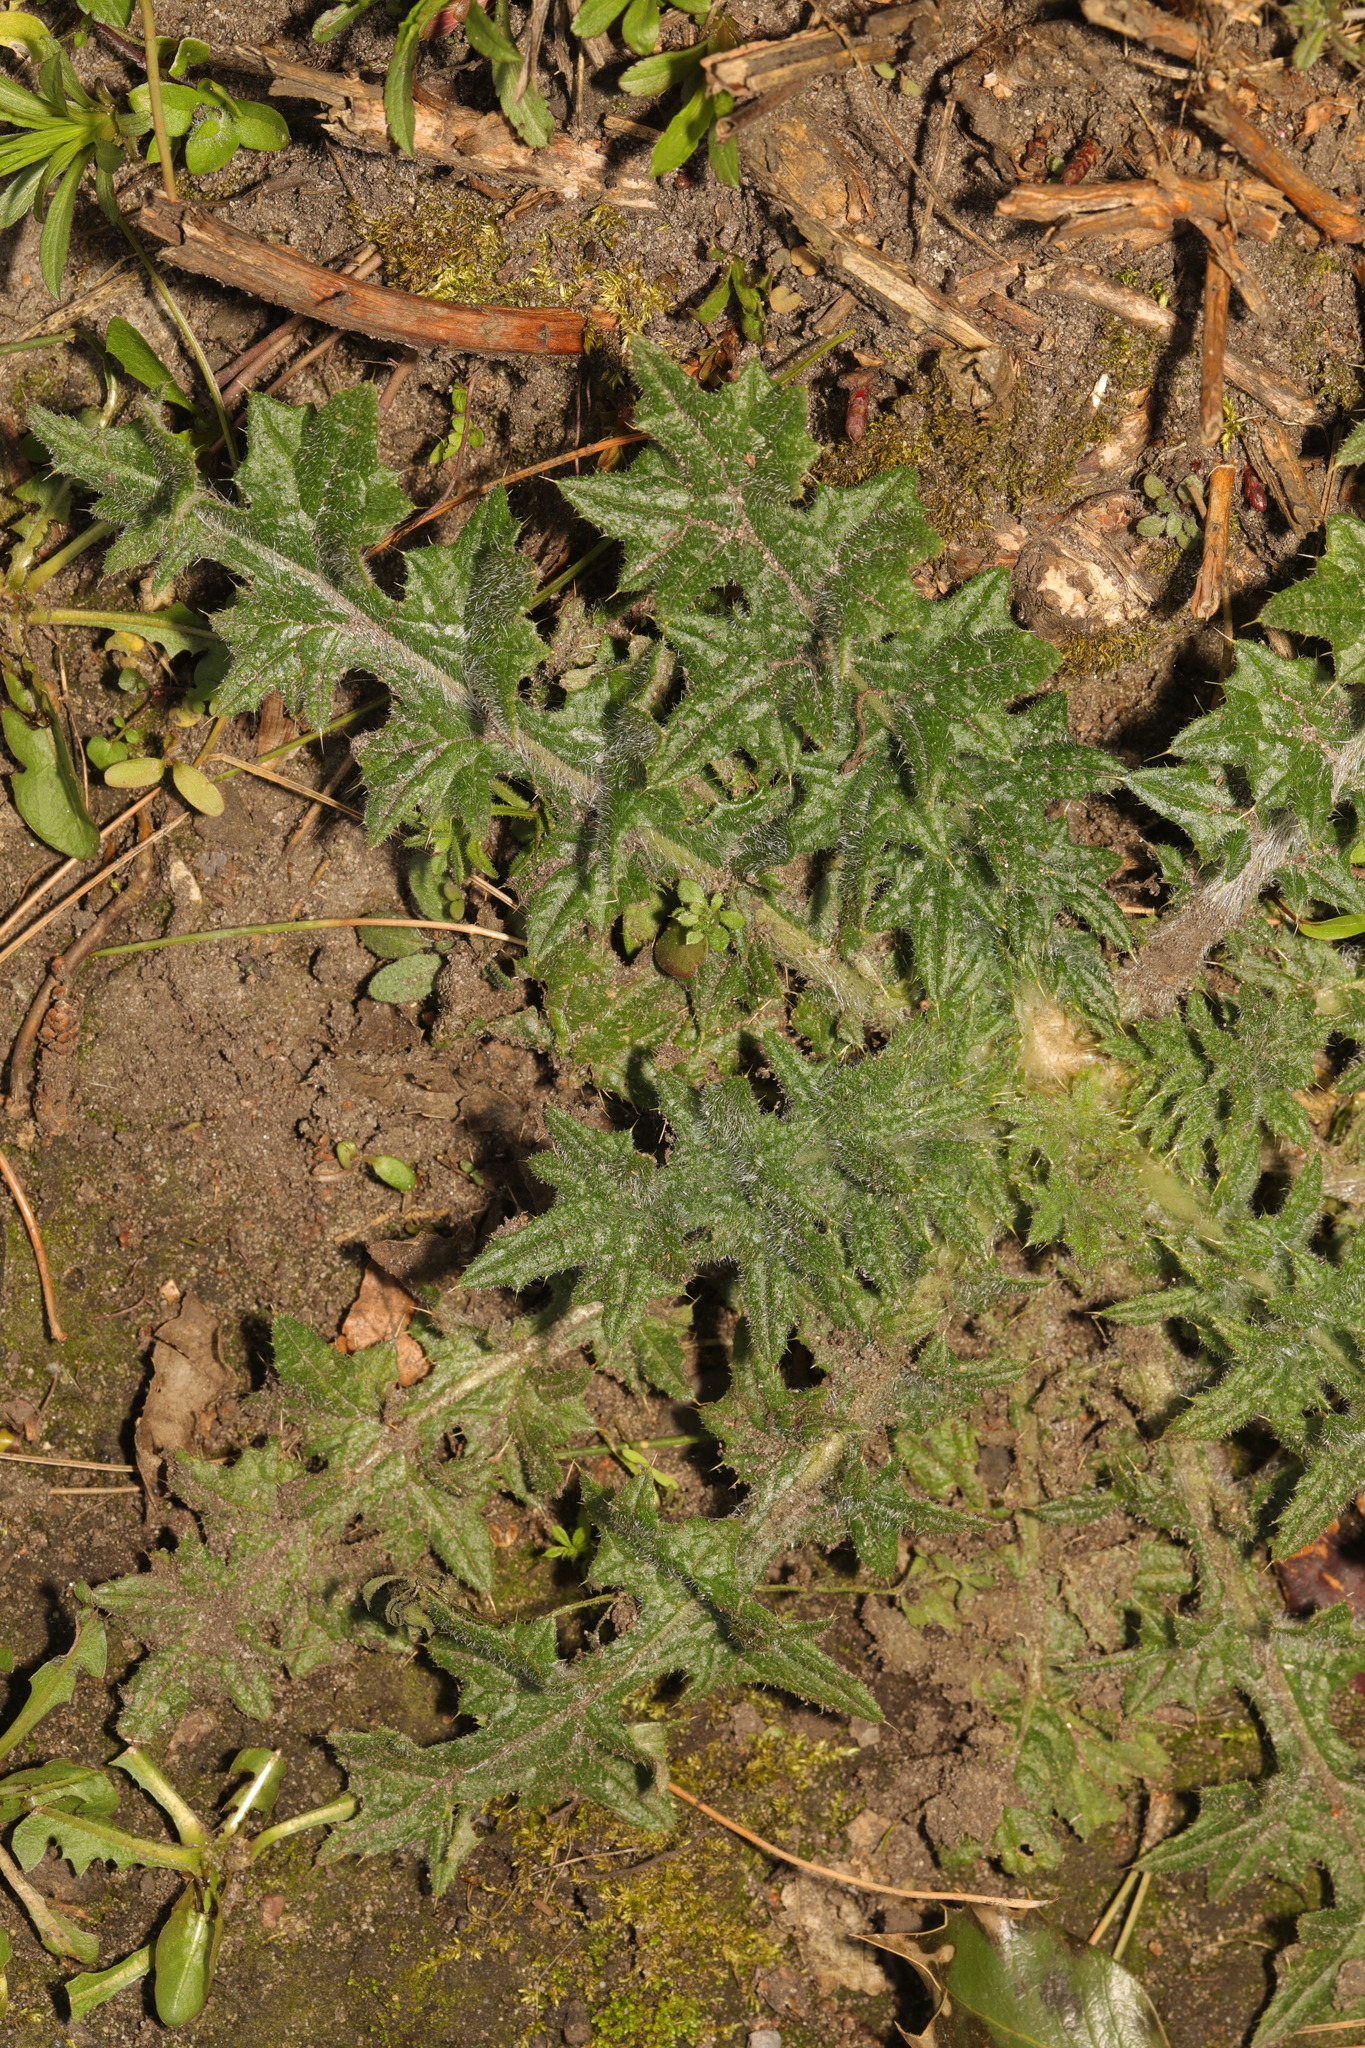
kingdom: Plantae
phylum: Tracheophyta
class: Magnoliopsida
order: Asterales
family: Asteraceae
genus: Cirsium
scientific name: Cirsium vulgare
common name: Bull thistle
